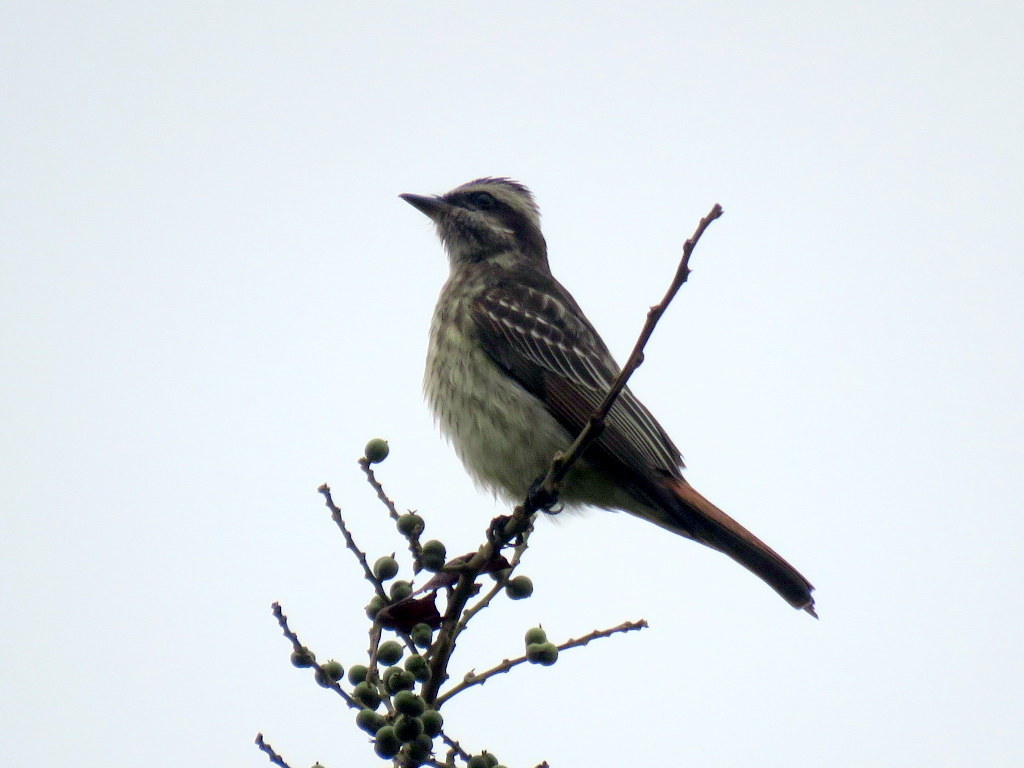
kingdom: Animalia
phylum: Chordata
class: Aves
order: Passeriformes
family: Tyrannidae
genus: Empidonomus
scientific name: Empidonomus varius
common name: Variegated flycatcher
